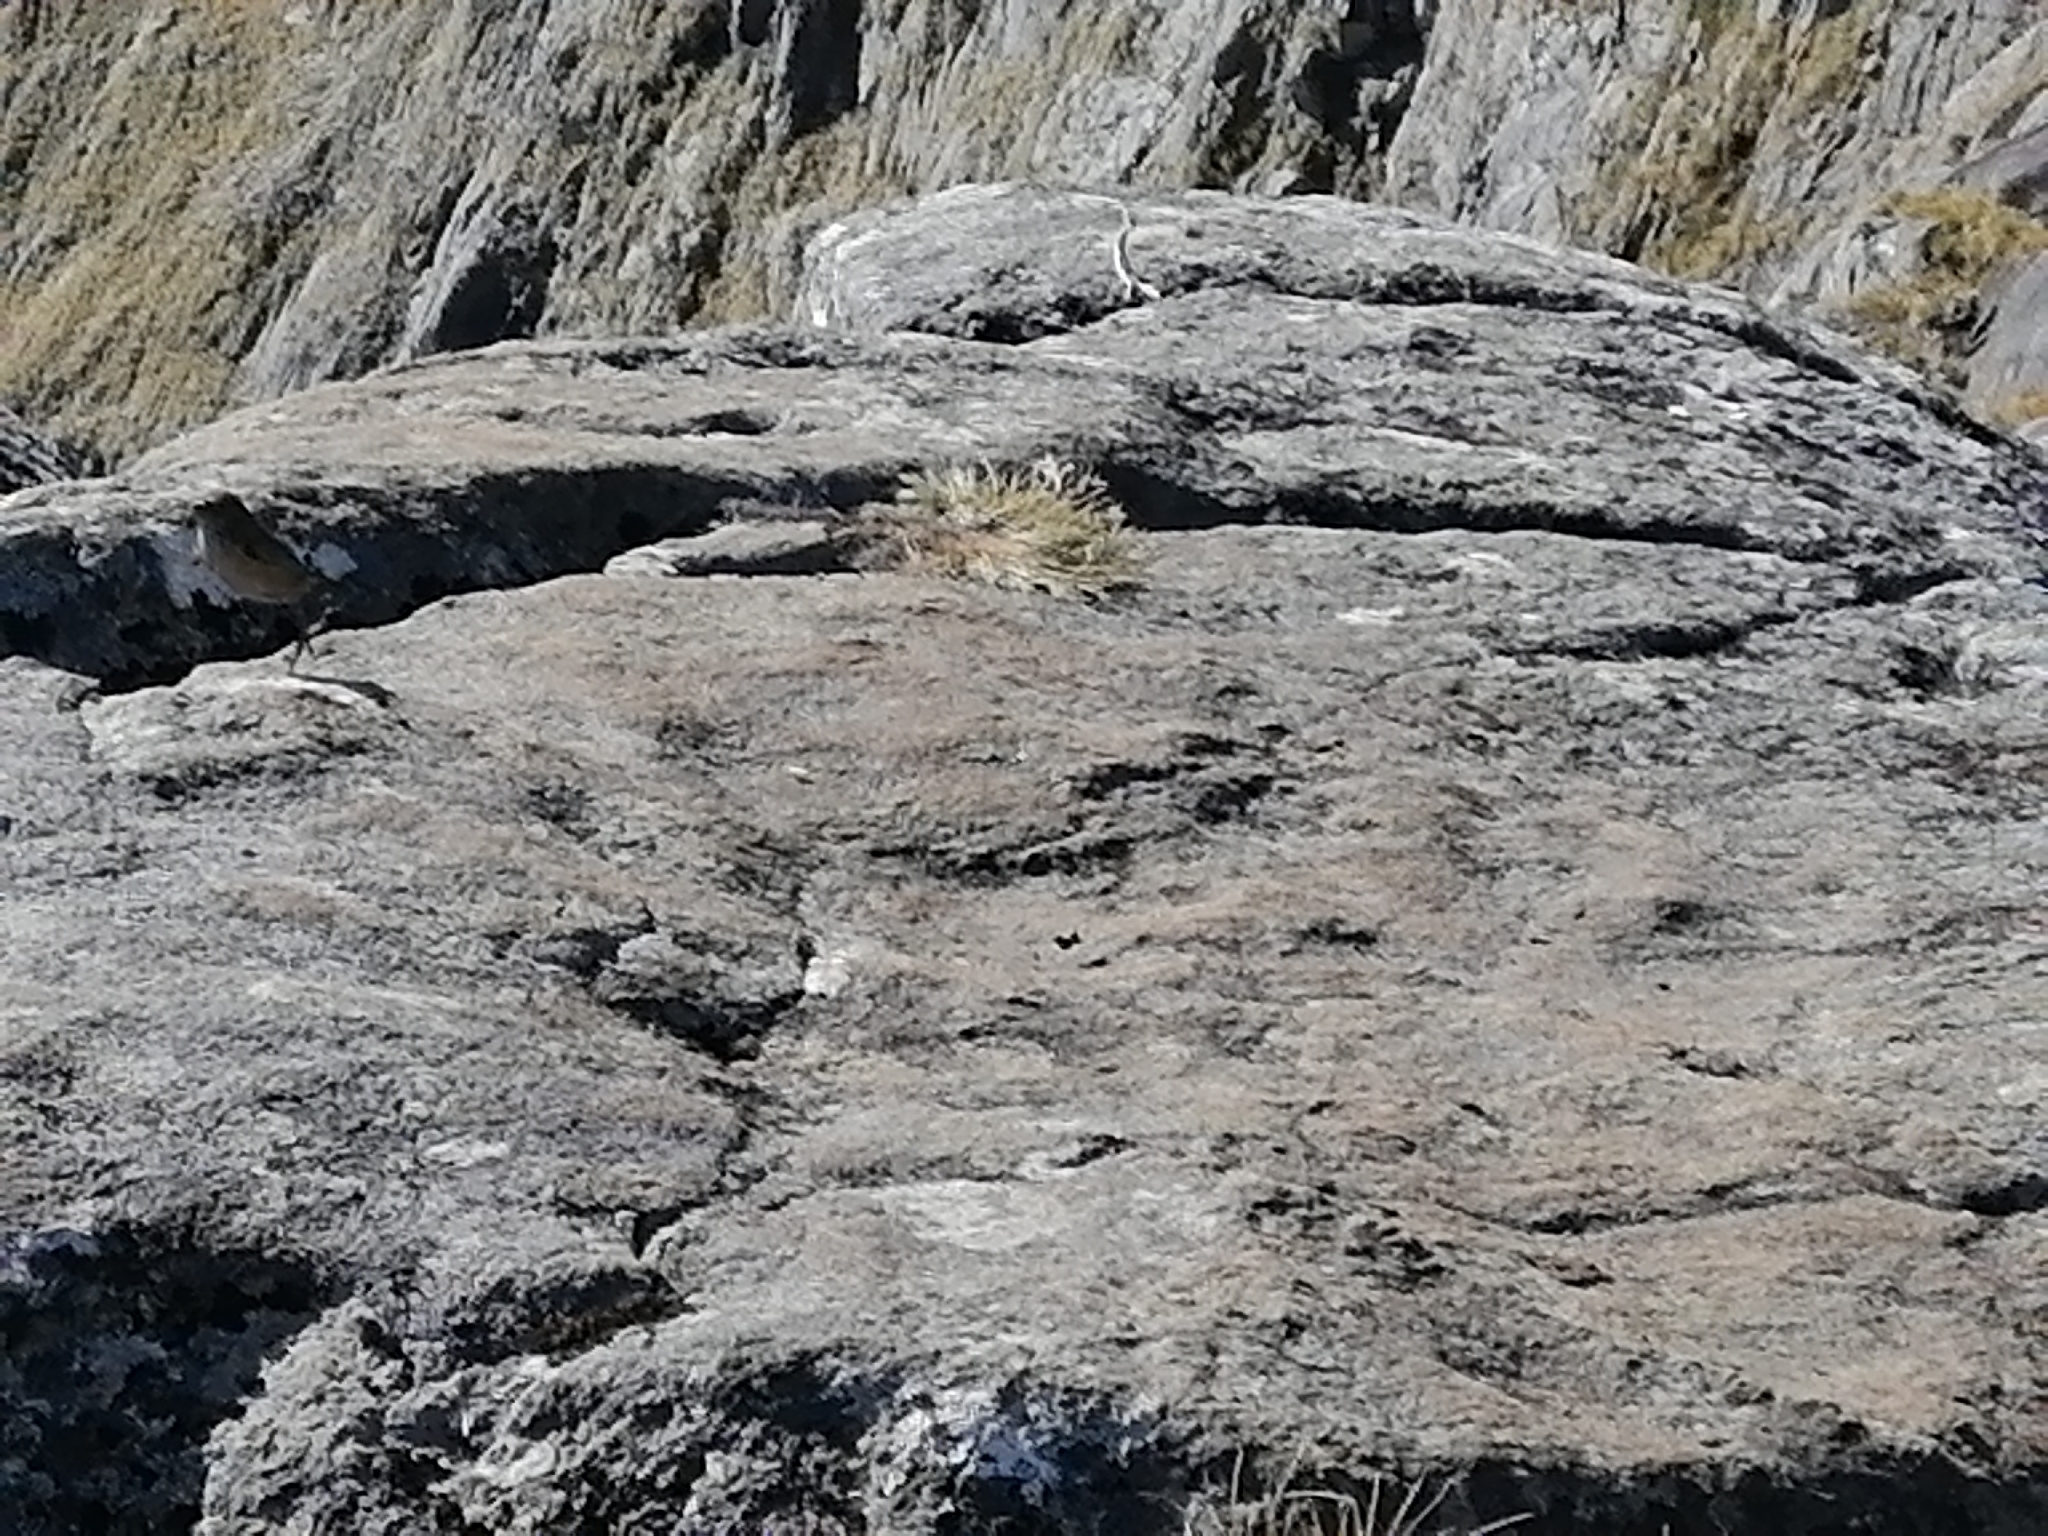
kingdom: Animalia
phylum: Chordata
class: Aves
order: Passeriformes
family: Acanthisittidae
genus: Xenicus
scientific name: Xenicus gilviventris
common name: New zealand rockwren
